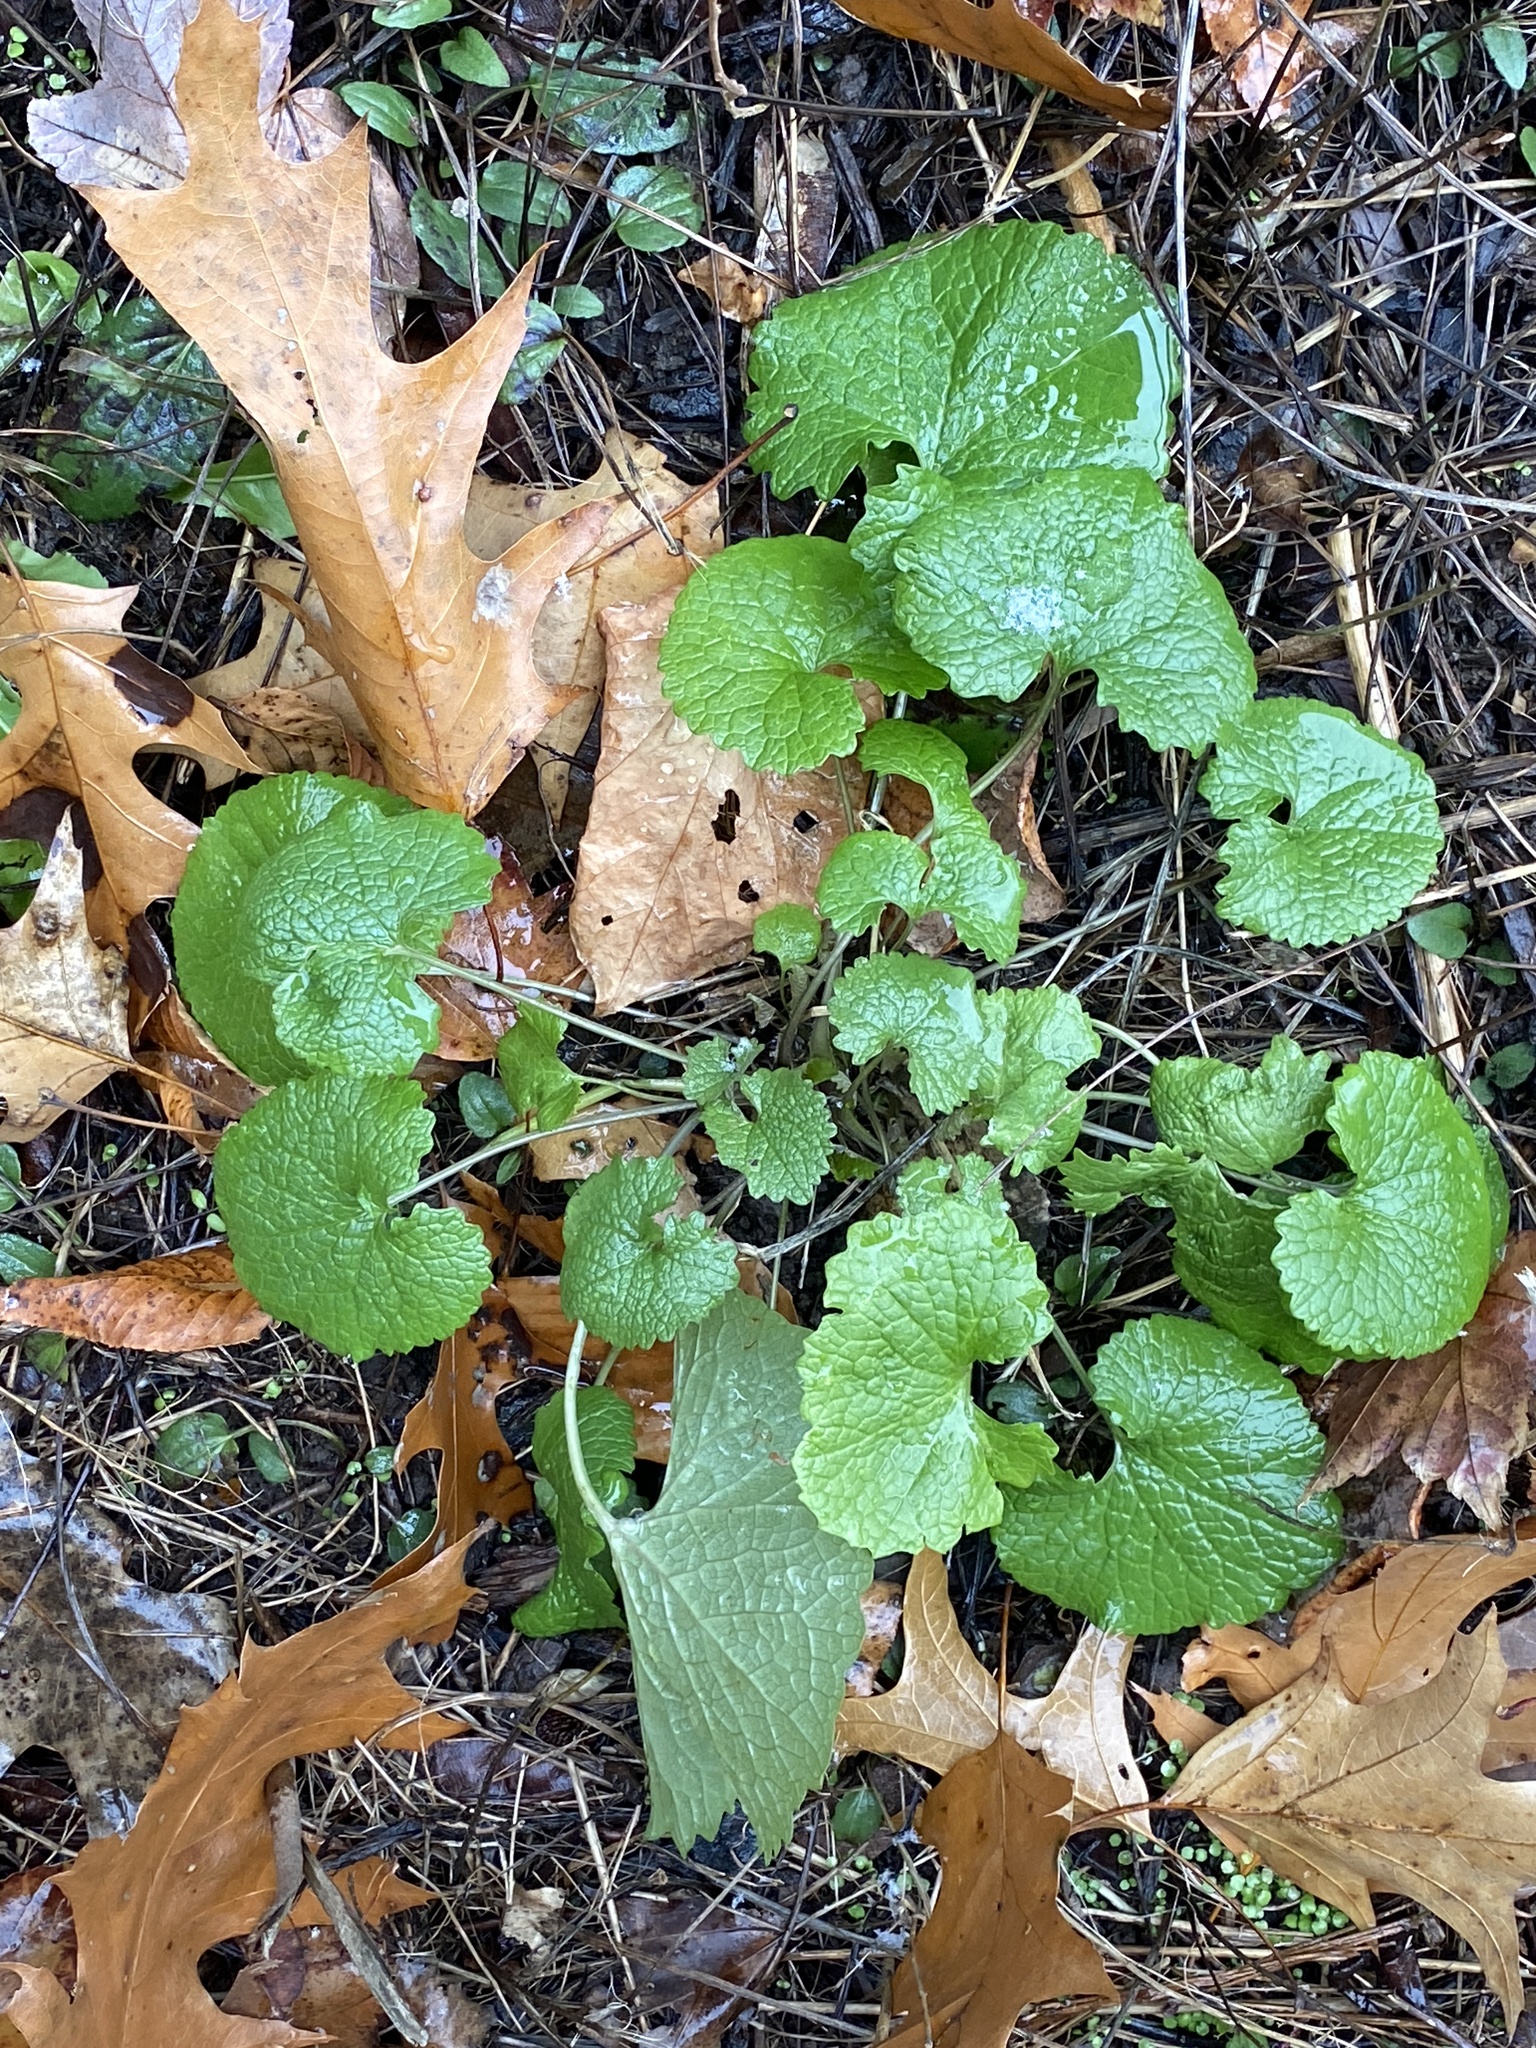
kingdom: Plantae
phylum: Tracheophyta
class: Magnoliopsida
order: Brassicales
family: Brassicaceae
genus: Alliaria
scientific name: Alliaria petiolata
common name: Garlic mustard
